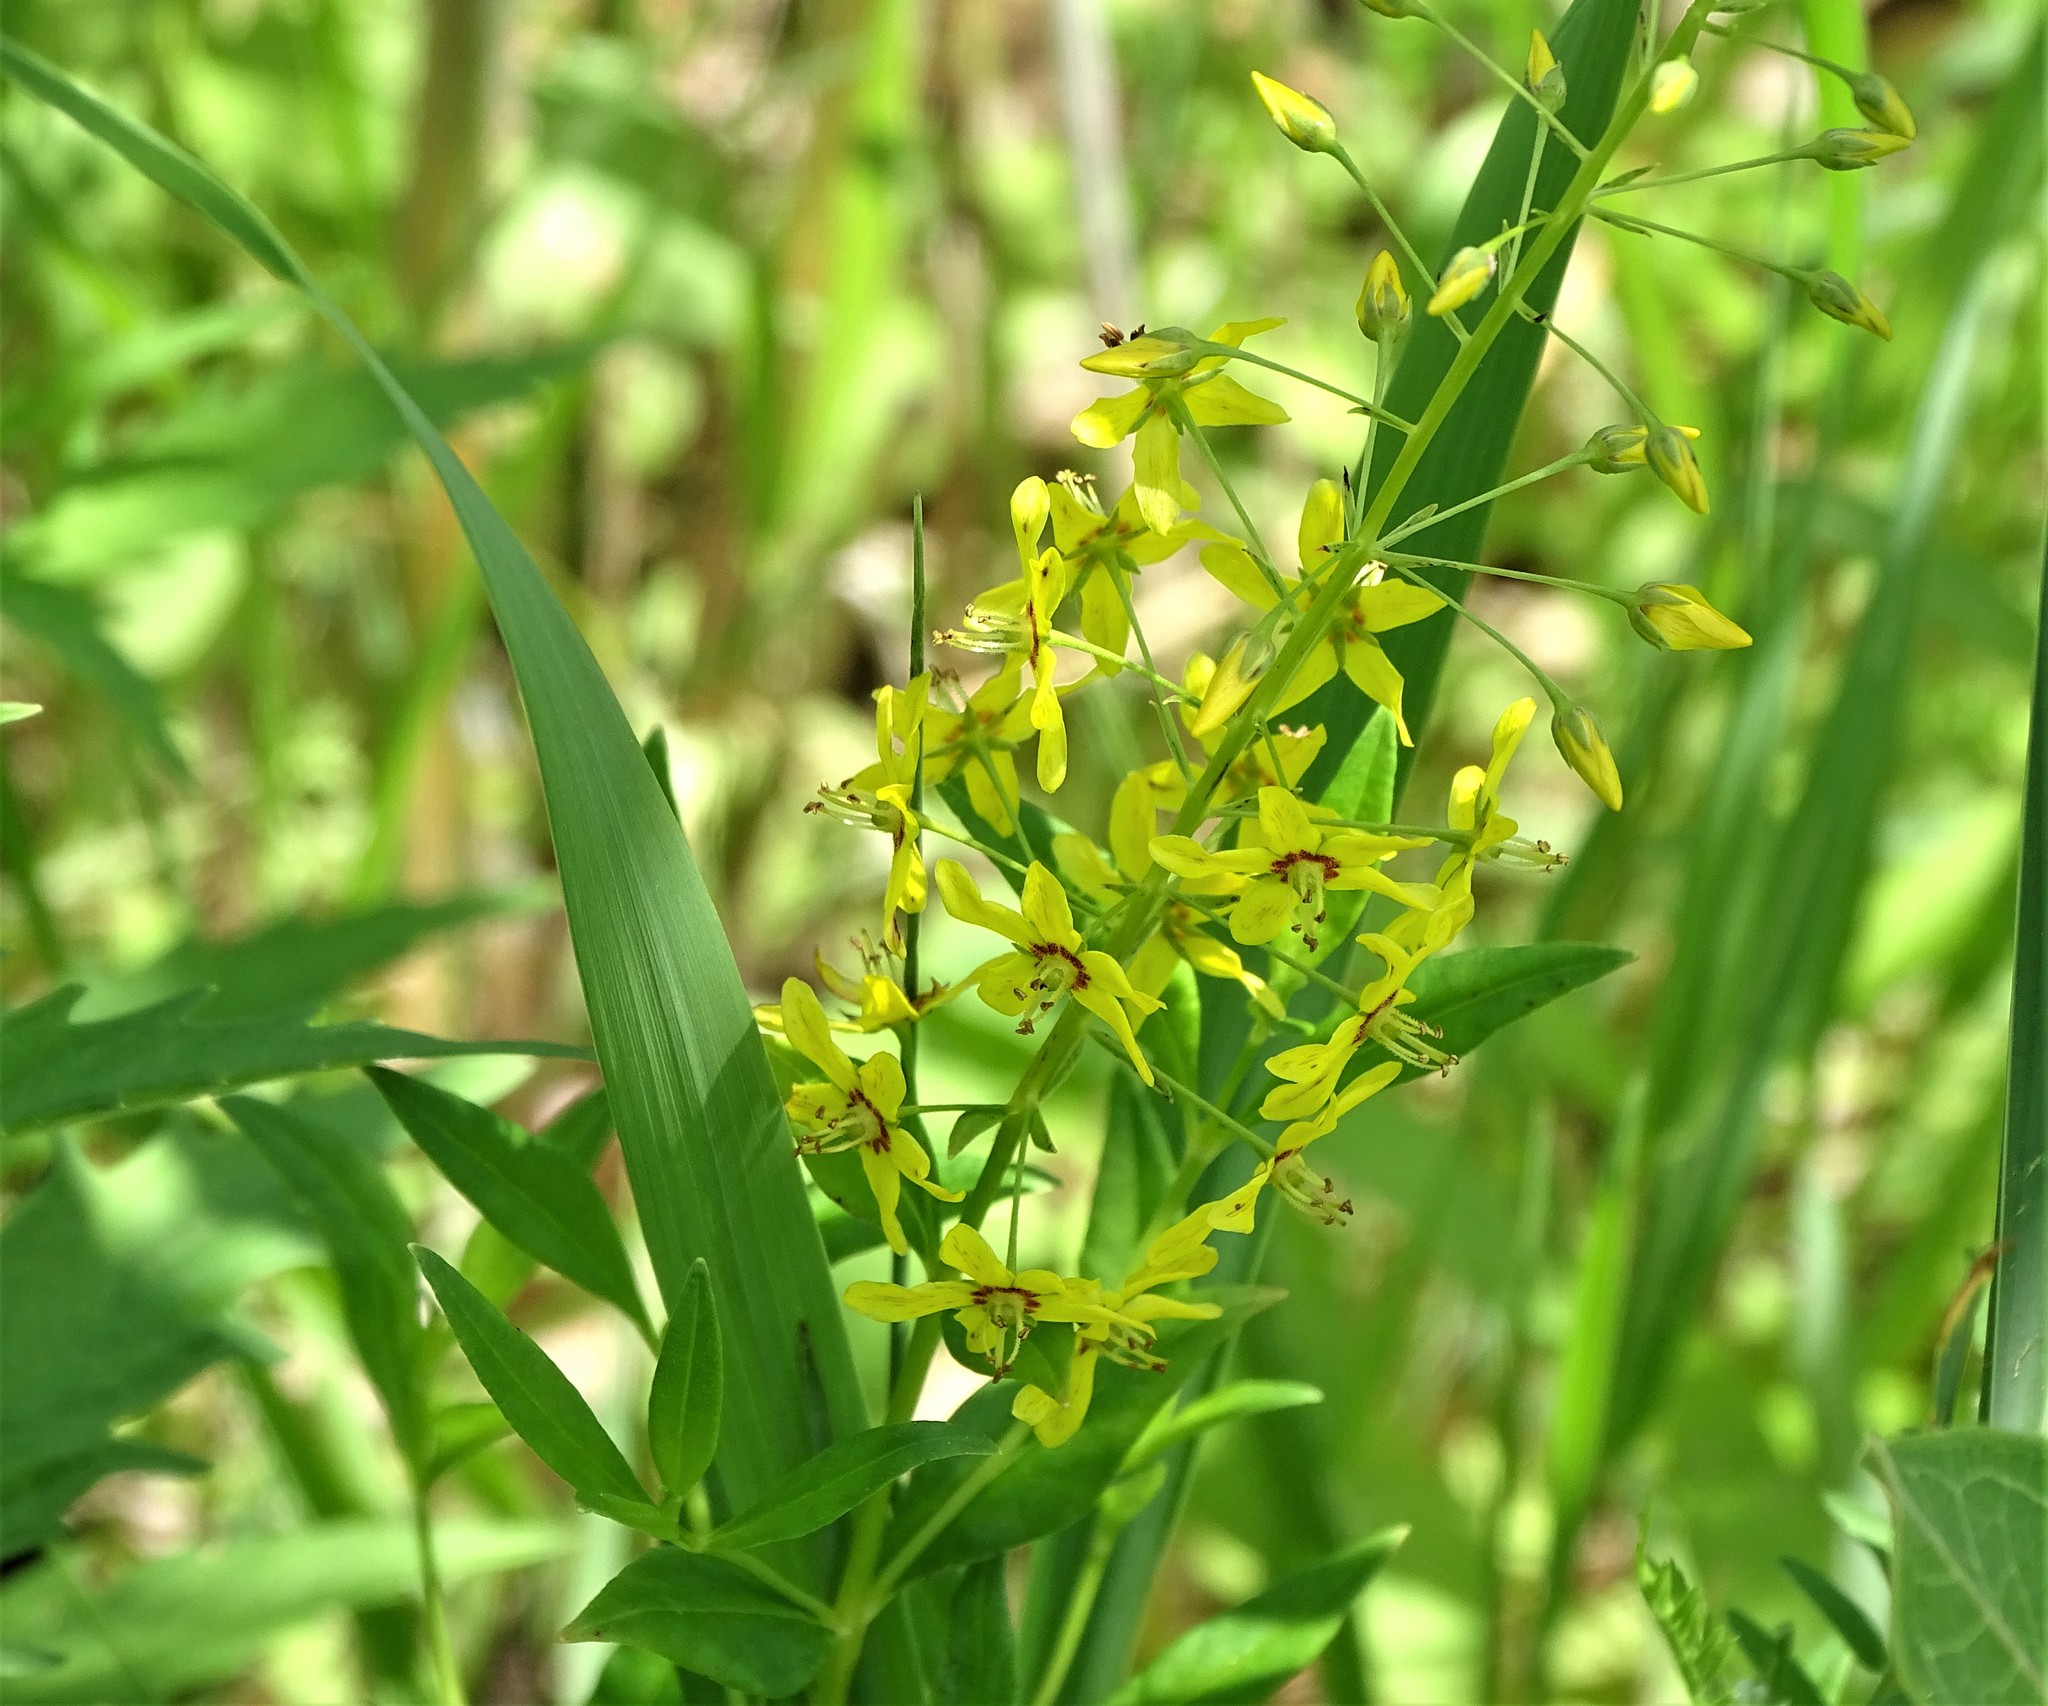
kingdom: Plantae
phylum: Tracheophyta
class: Magnoliopsida
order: Ericales
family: Primulaceae
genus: Lysimachia
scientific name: Lysimachia terrestris
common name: Lake loosestrife
